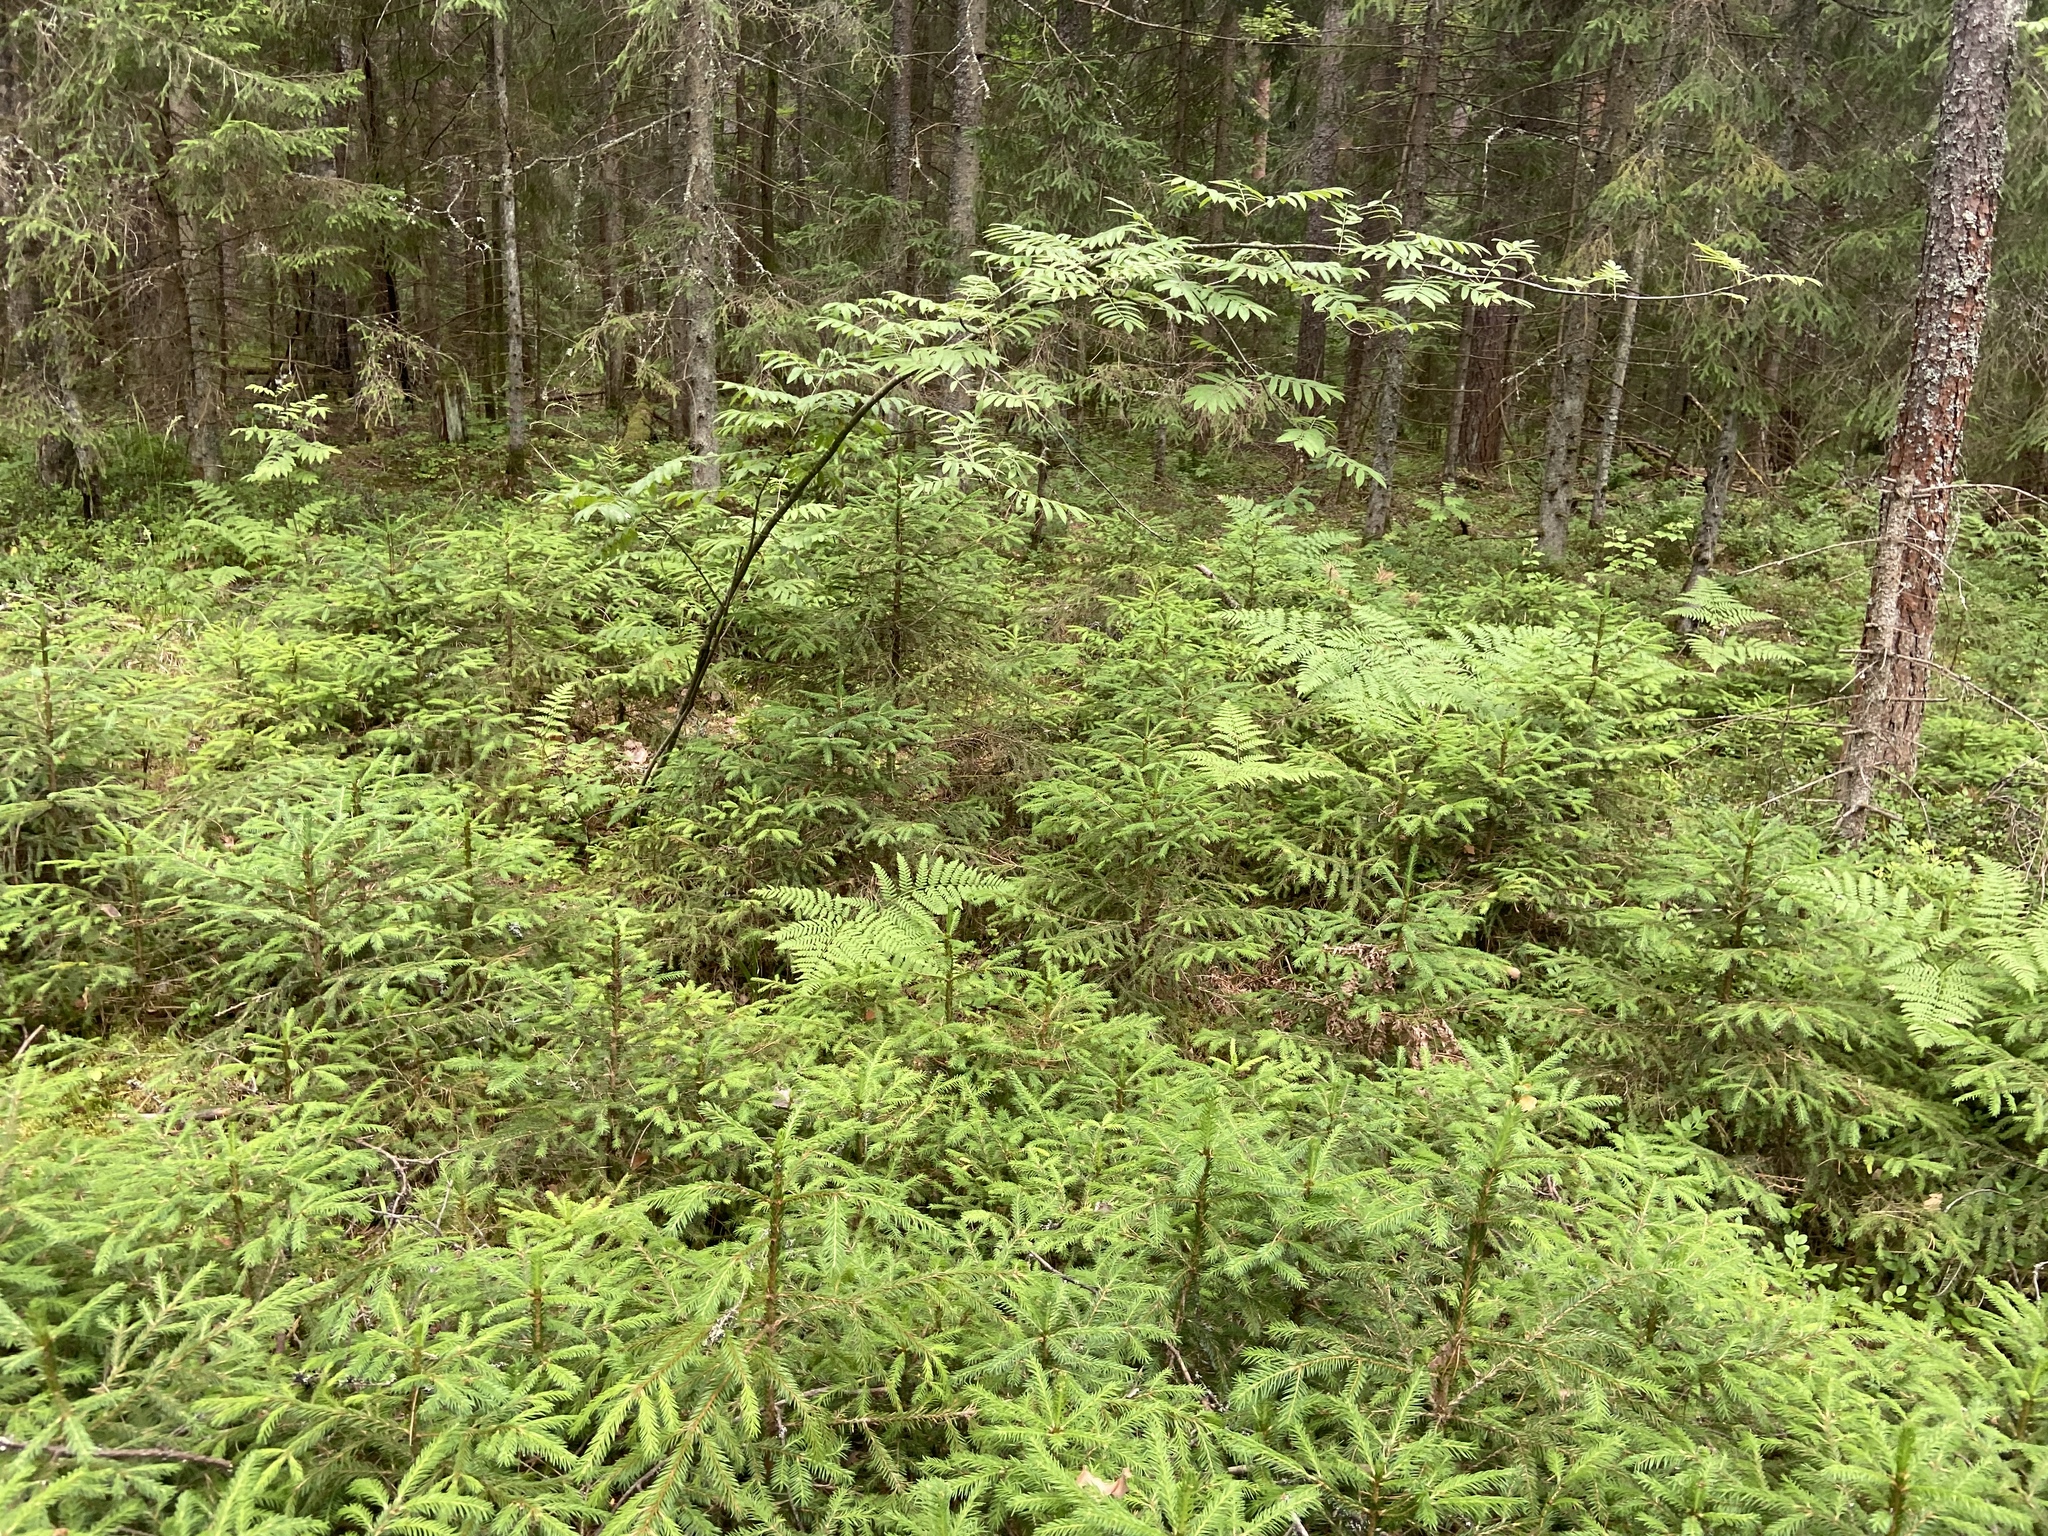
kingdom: Plantae
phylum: Tracheophyta
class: Pinopsida
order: Pinales
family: Pinaceae
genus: Picea
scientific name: Picea abies
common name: Norway spruce
